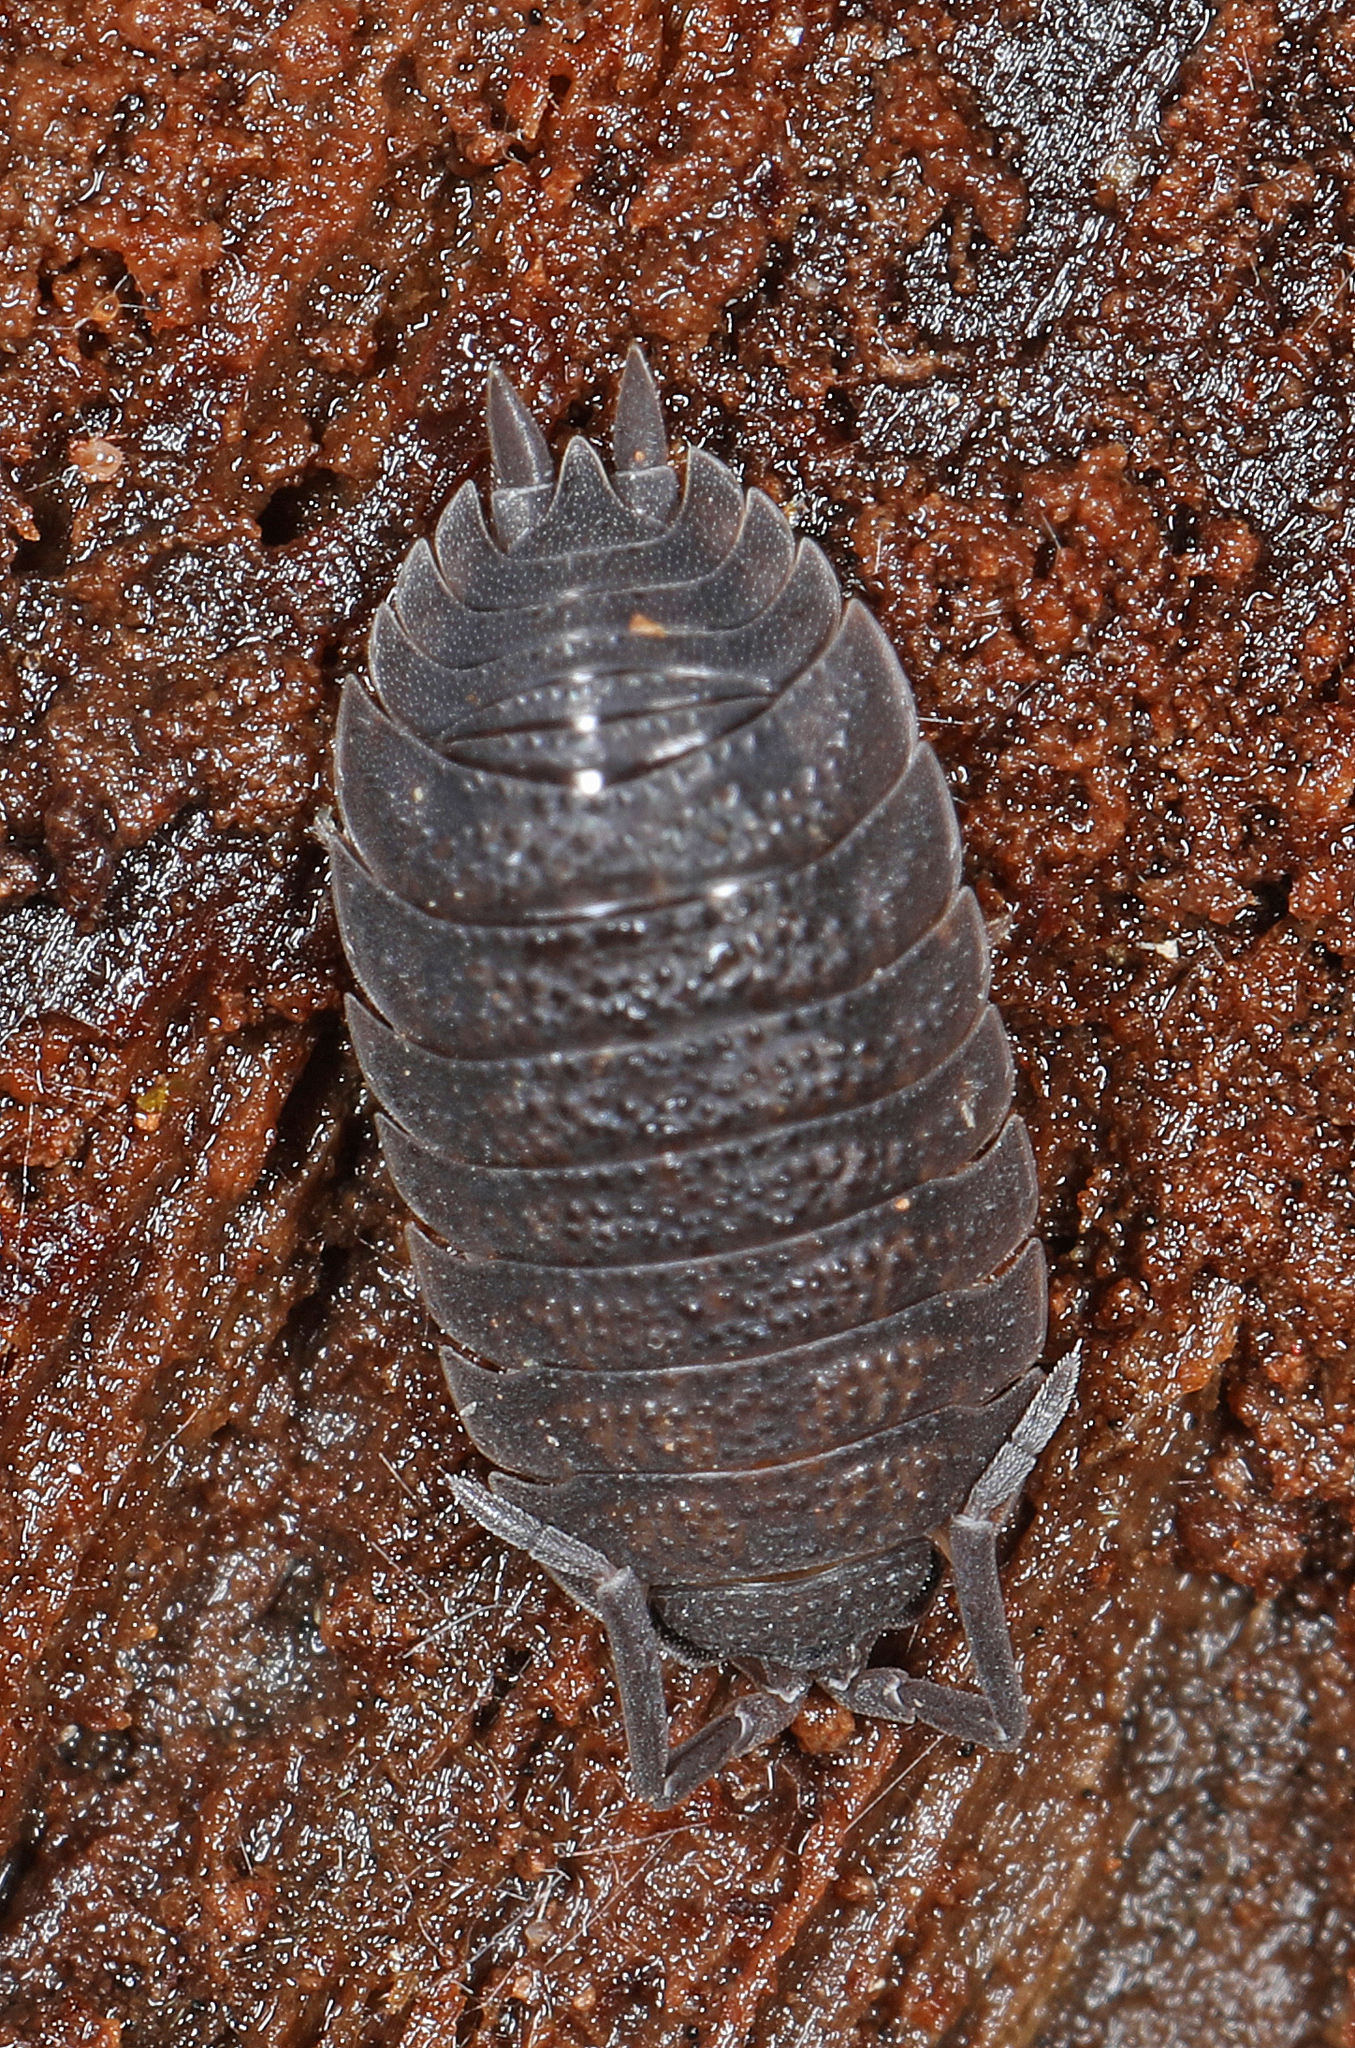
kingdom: Animalia
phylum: Arthropoda
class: Malacostraca
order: Isopoda
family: Porcellionidae
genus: Porcellio
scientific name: Porcellio scaber
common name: Common rough woodlouse
